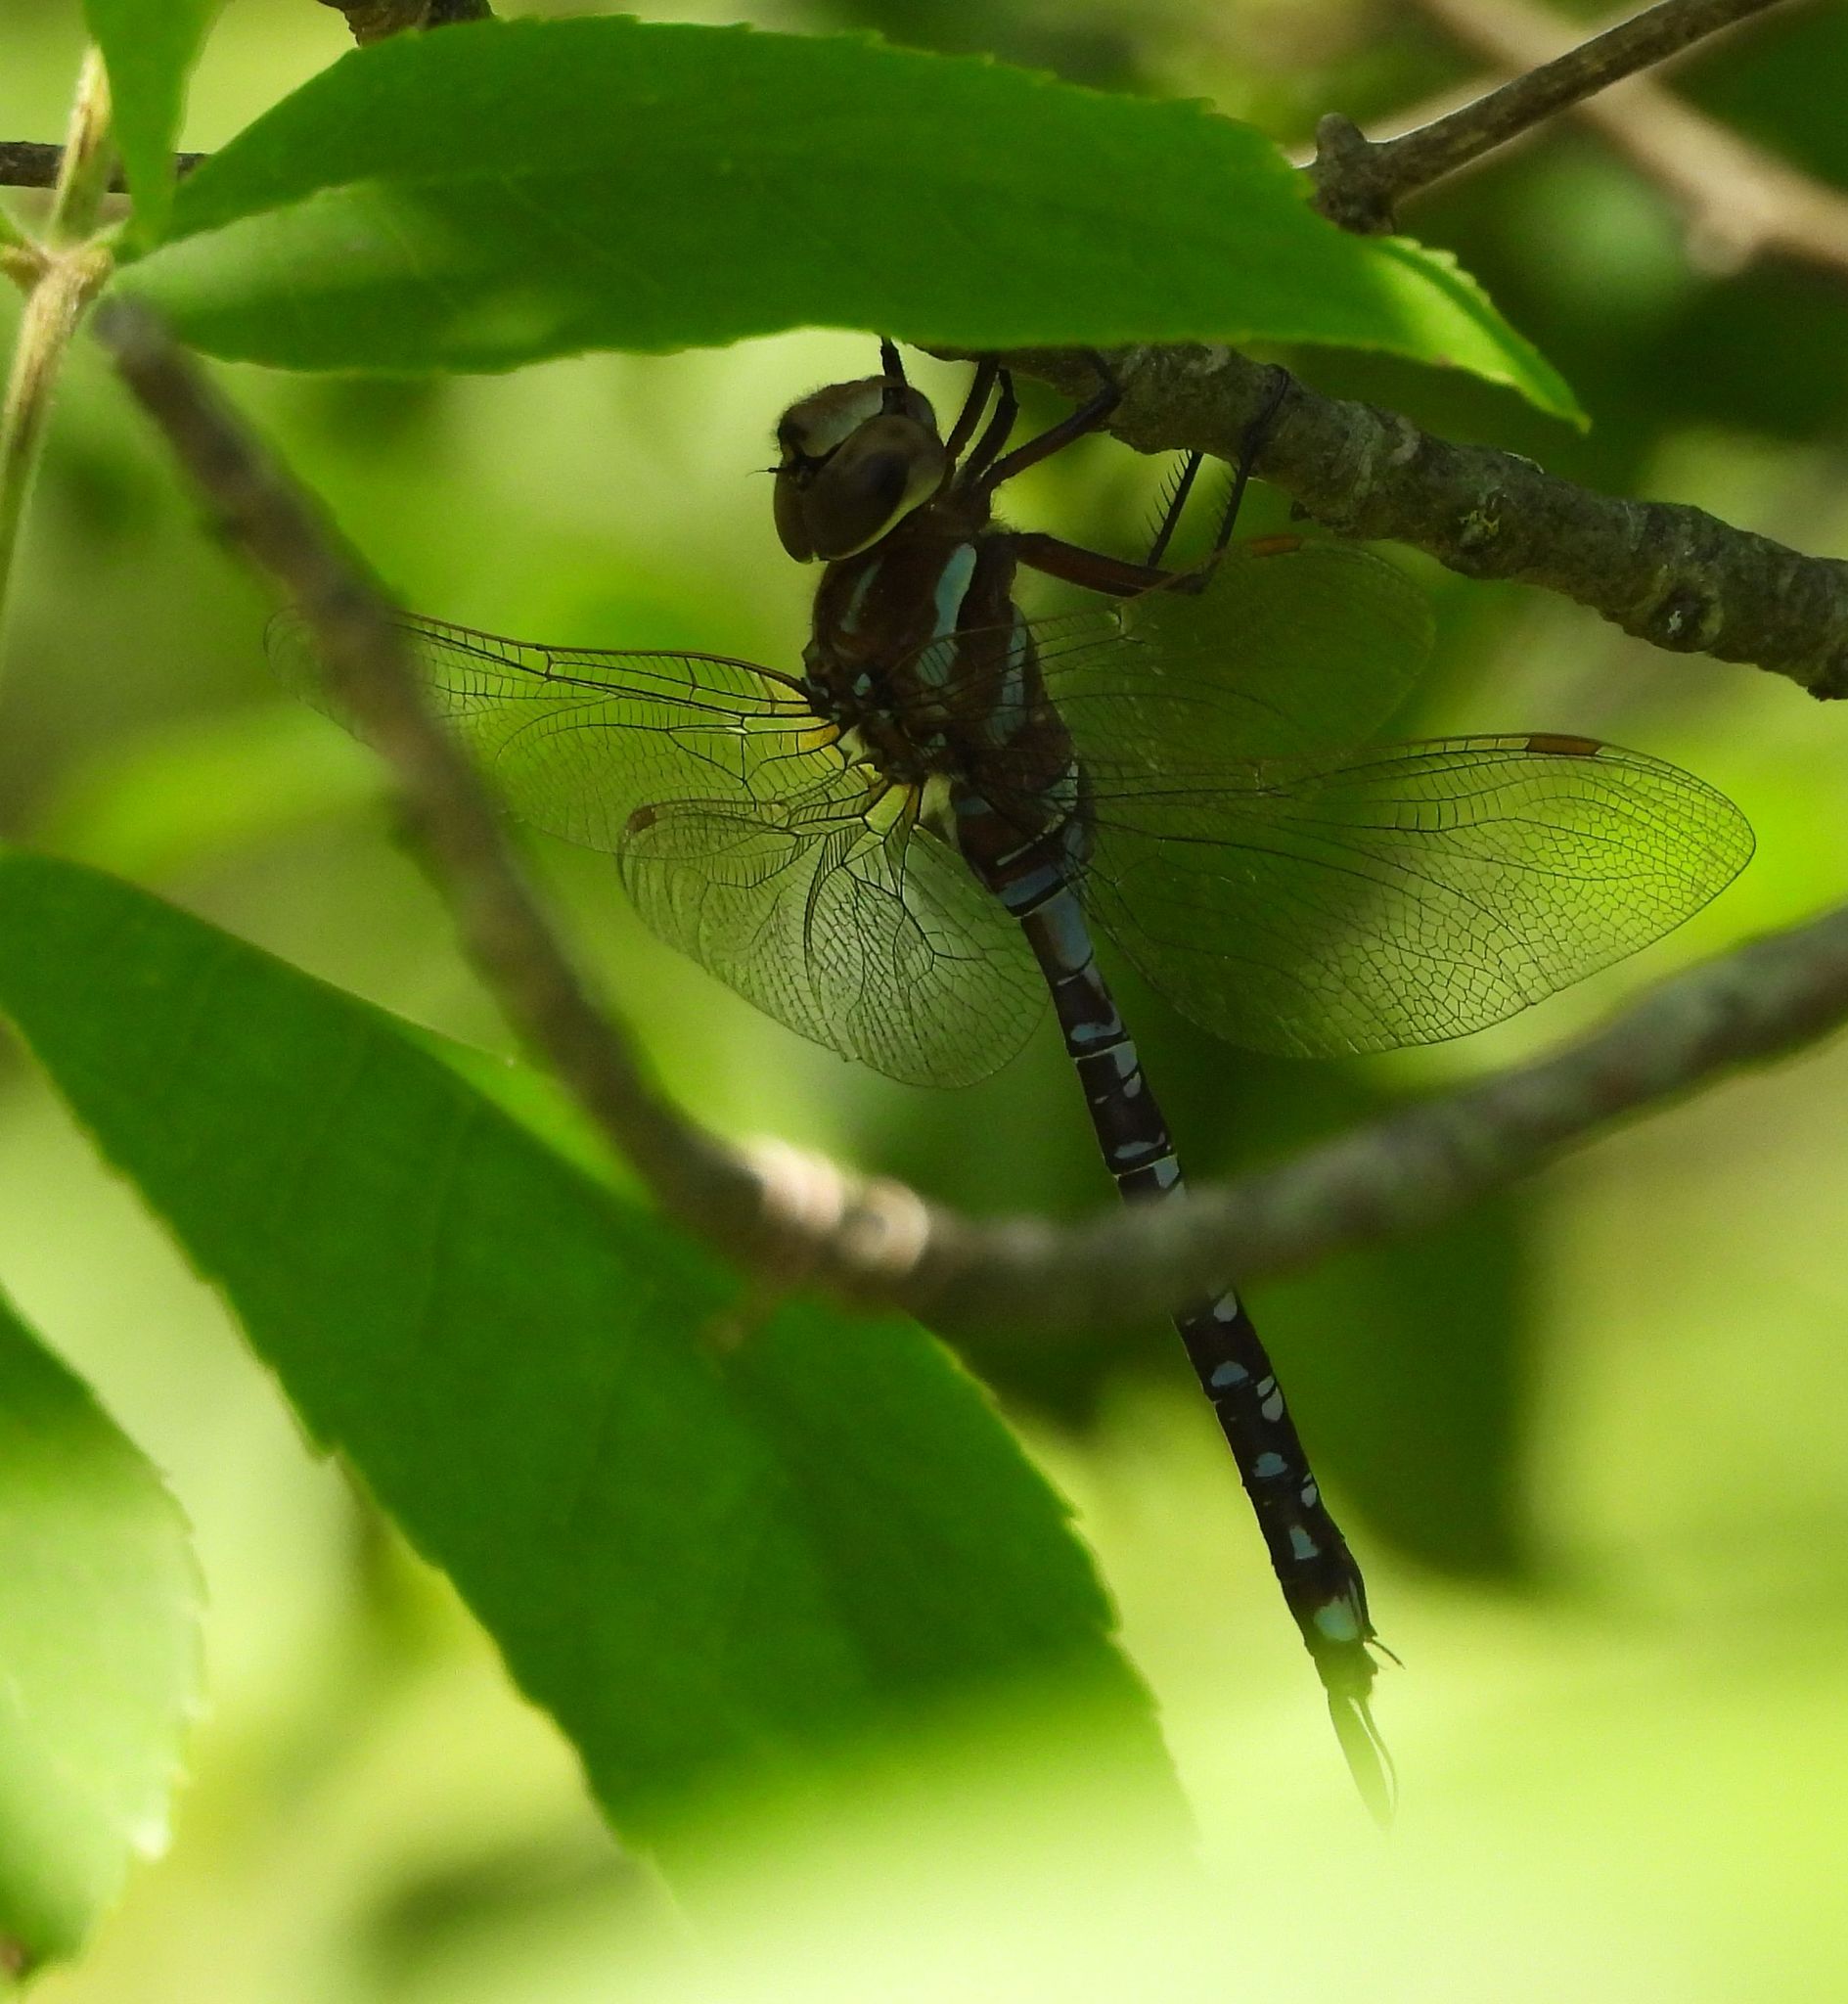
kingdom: Animalia
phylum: Arthropoda
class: Insecta
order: Odonata
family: Aeshnidae
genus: Aeshna
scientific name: Aeshna constricta
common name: Lance-tipped darner
